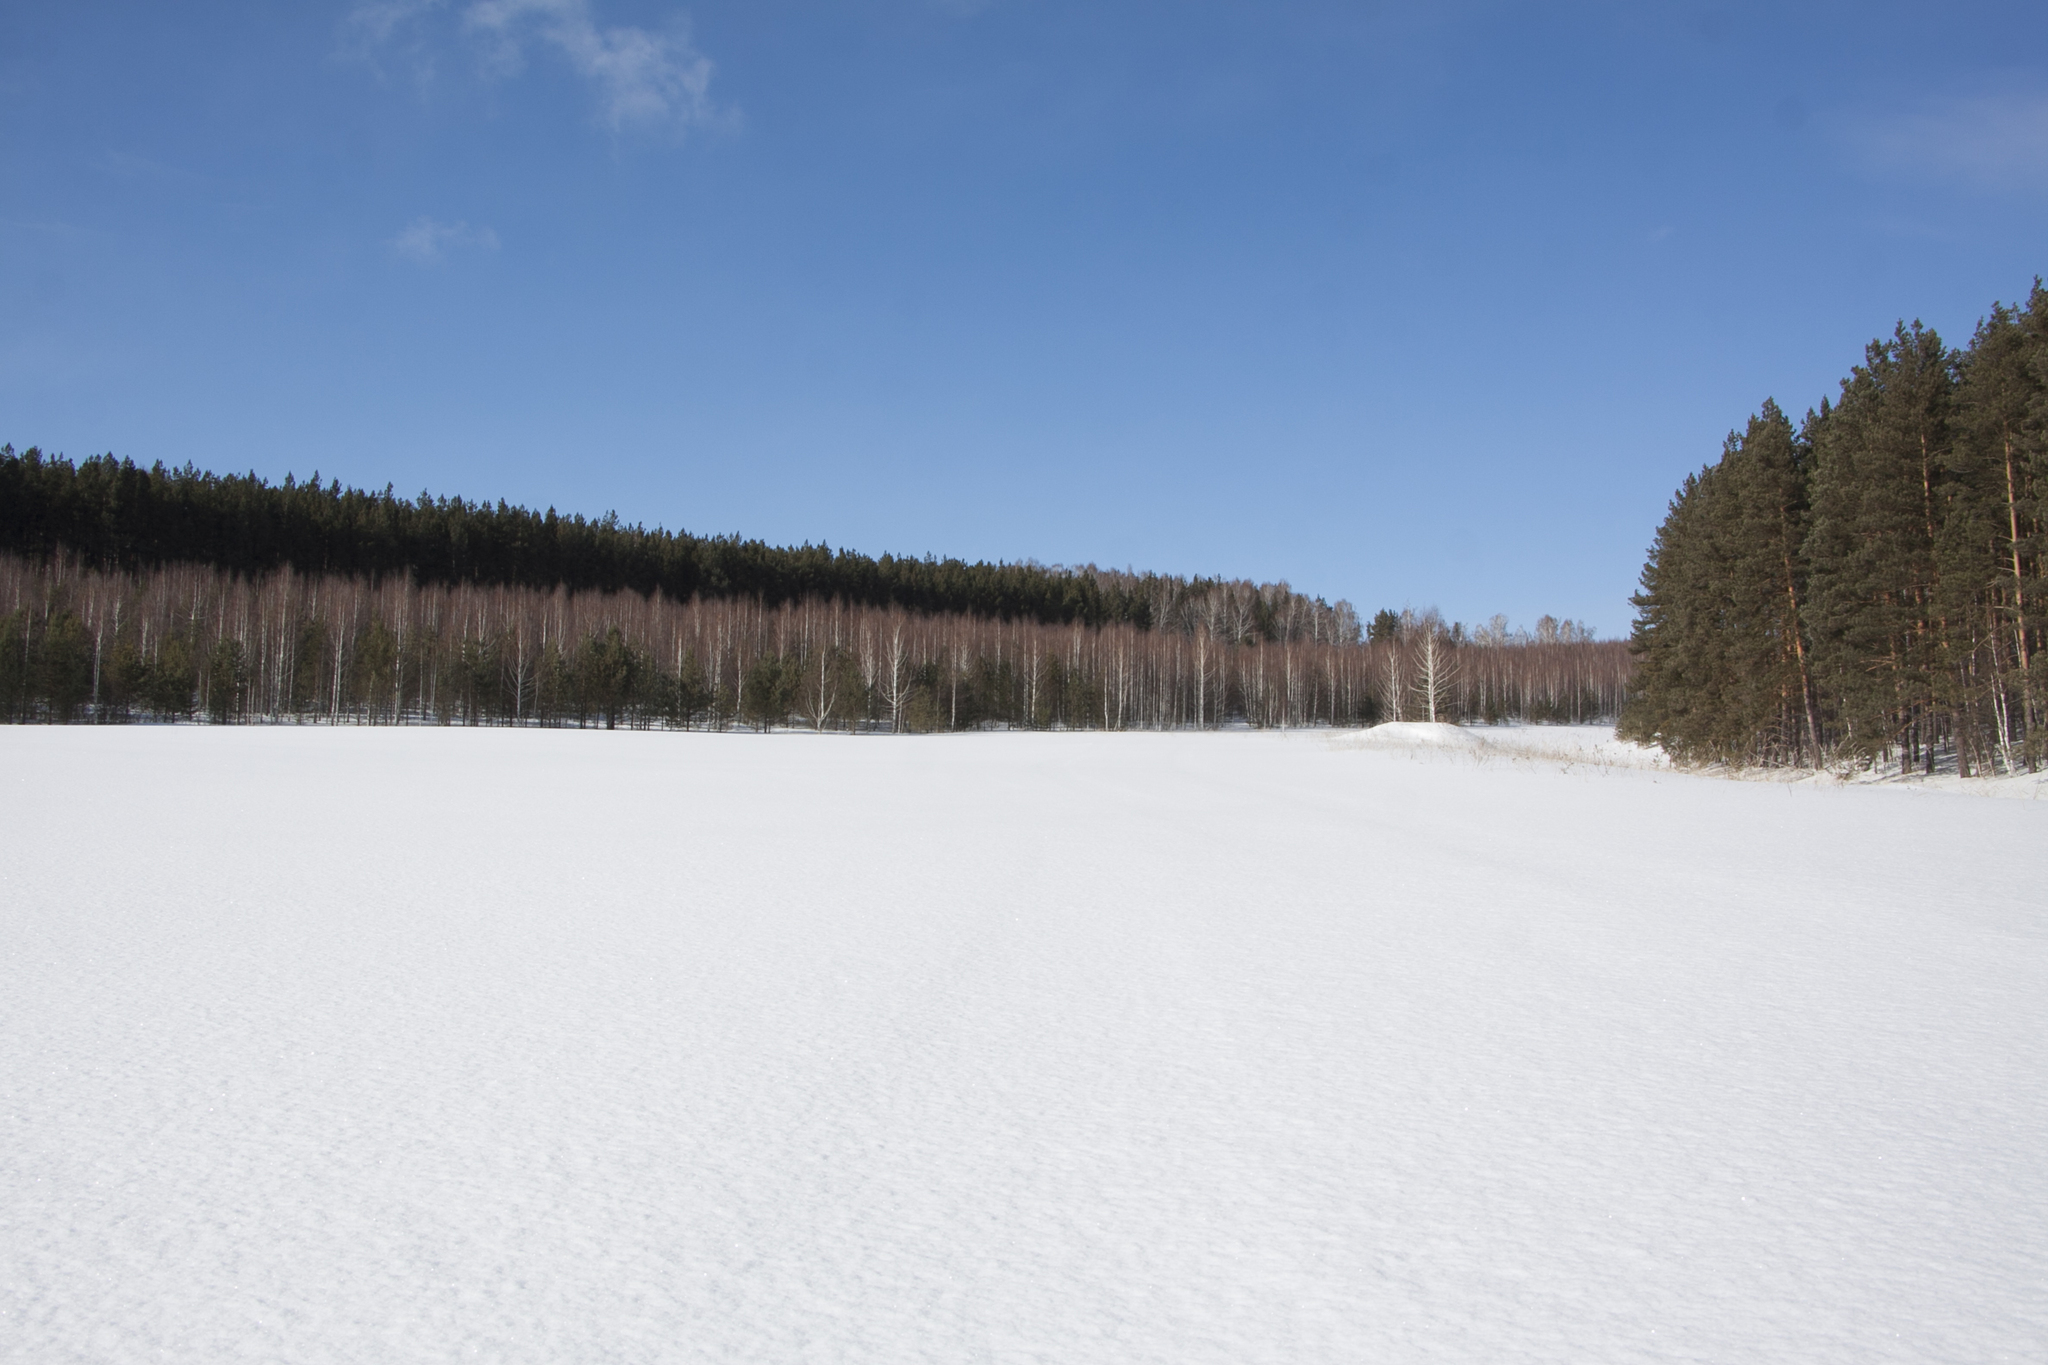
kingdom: Plantae
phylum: Tracheophyta
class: Pinopsida
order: Pinales
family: Pinaceae
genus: Pinus
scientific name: Pinus sylvestris
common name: Scots pine
